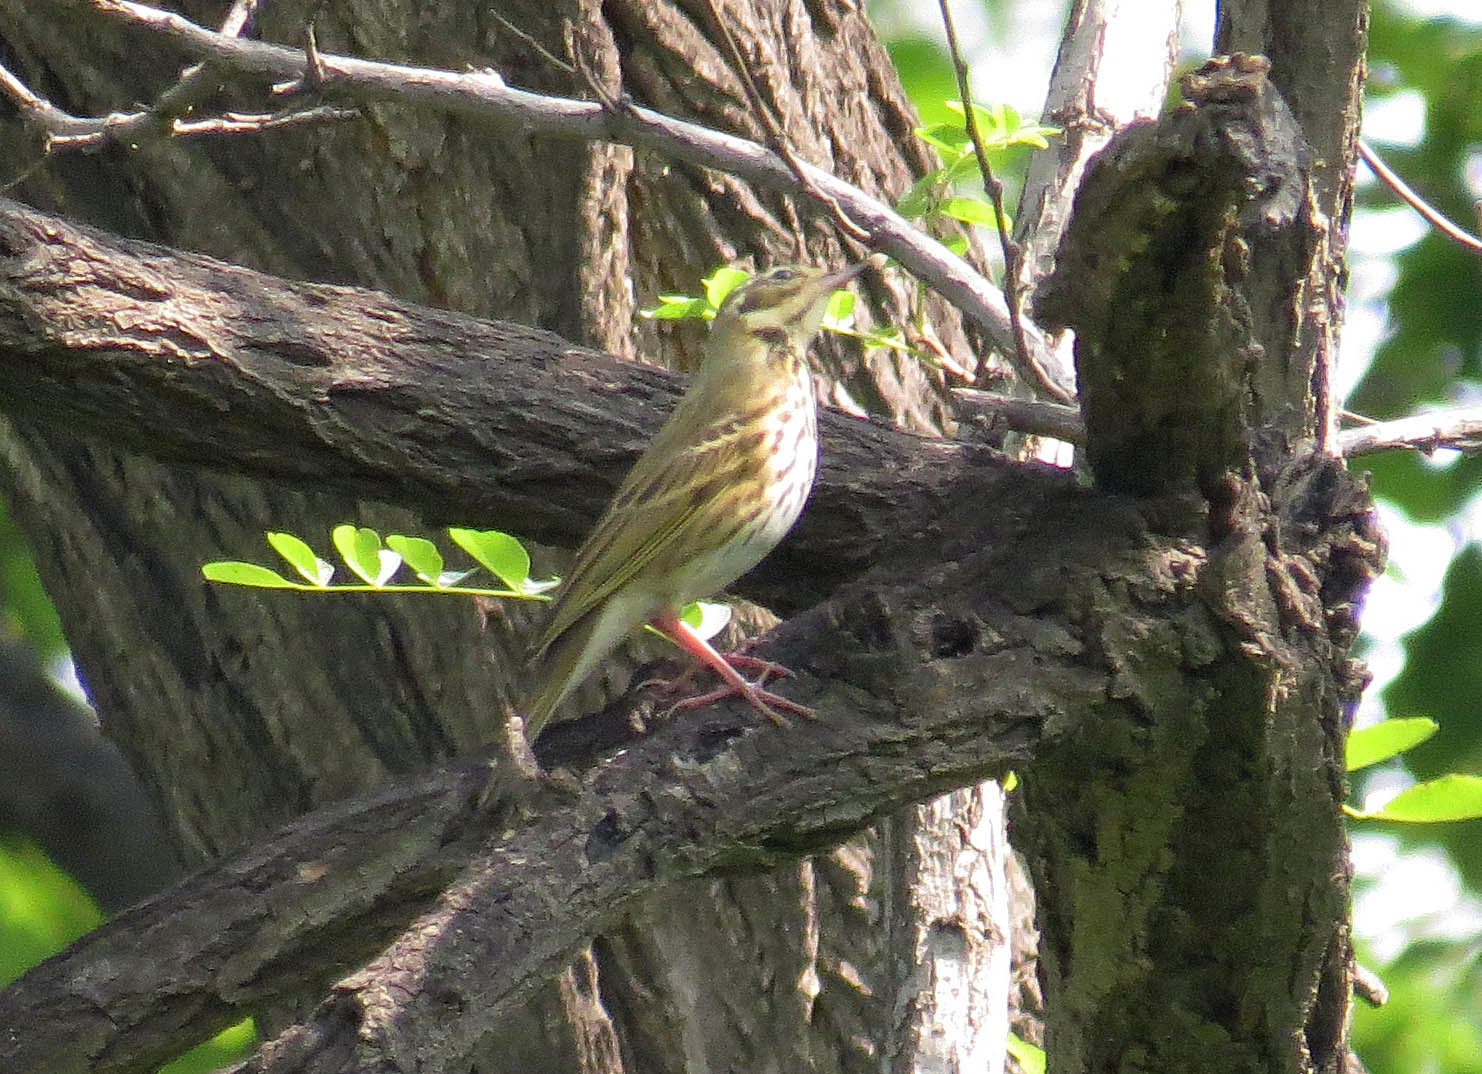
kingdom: Animalia
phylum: Chordata
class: Aves
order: Passeriformes
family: Motacillidae
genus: Anthus
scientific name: Anthus hodgsoni
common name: Olive-backed pipit
